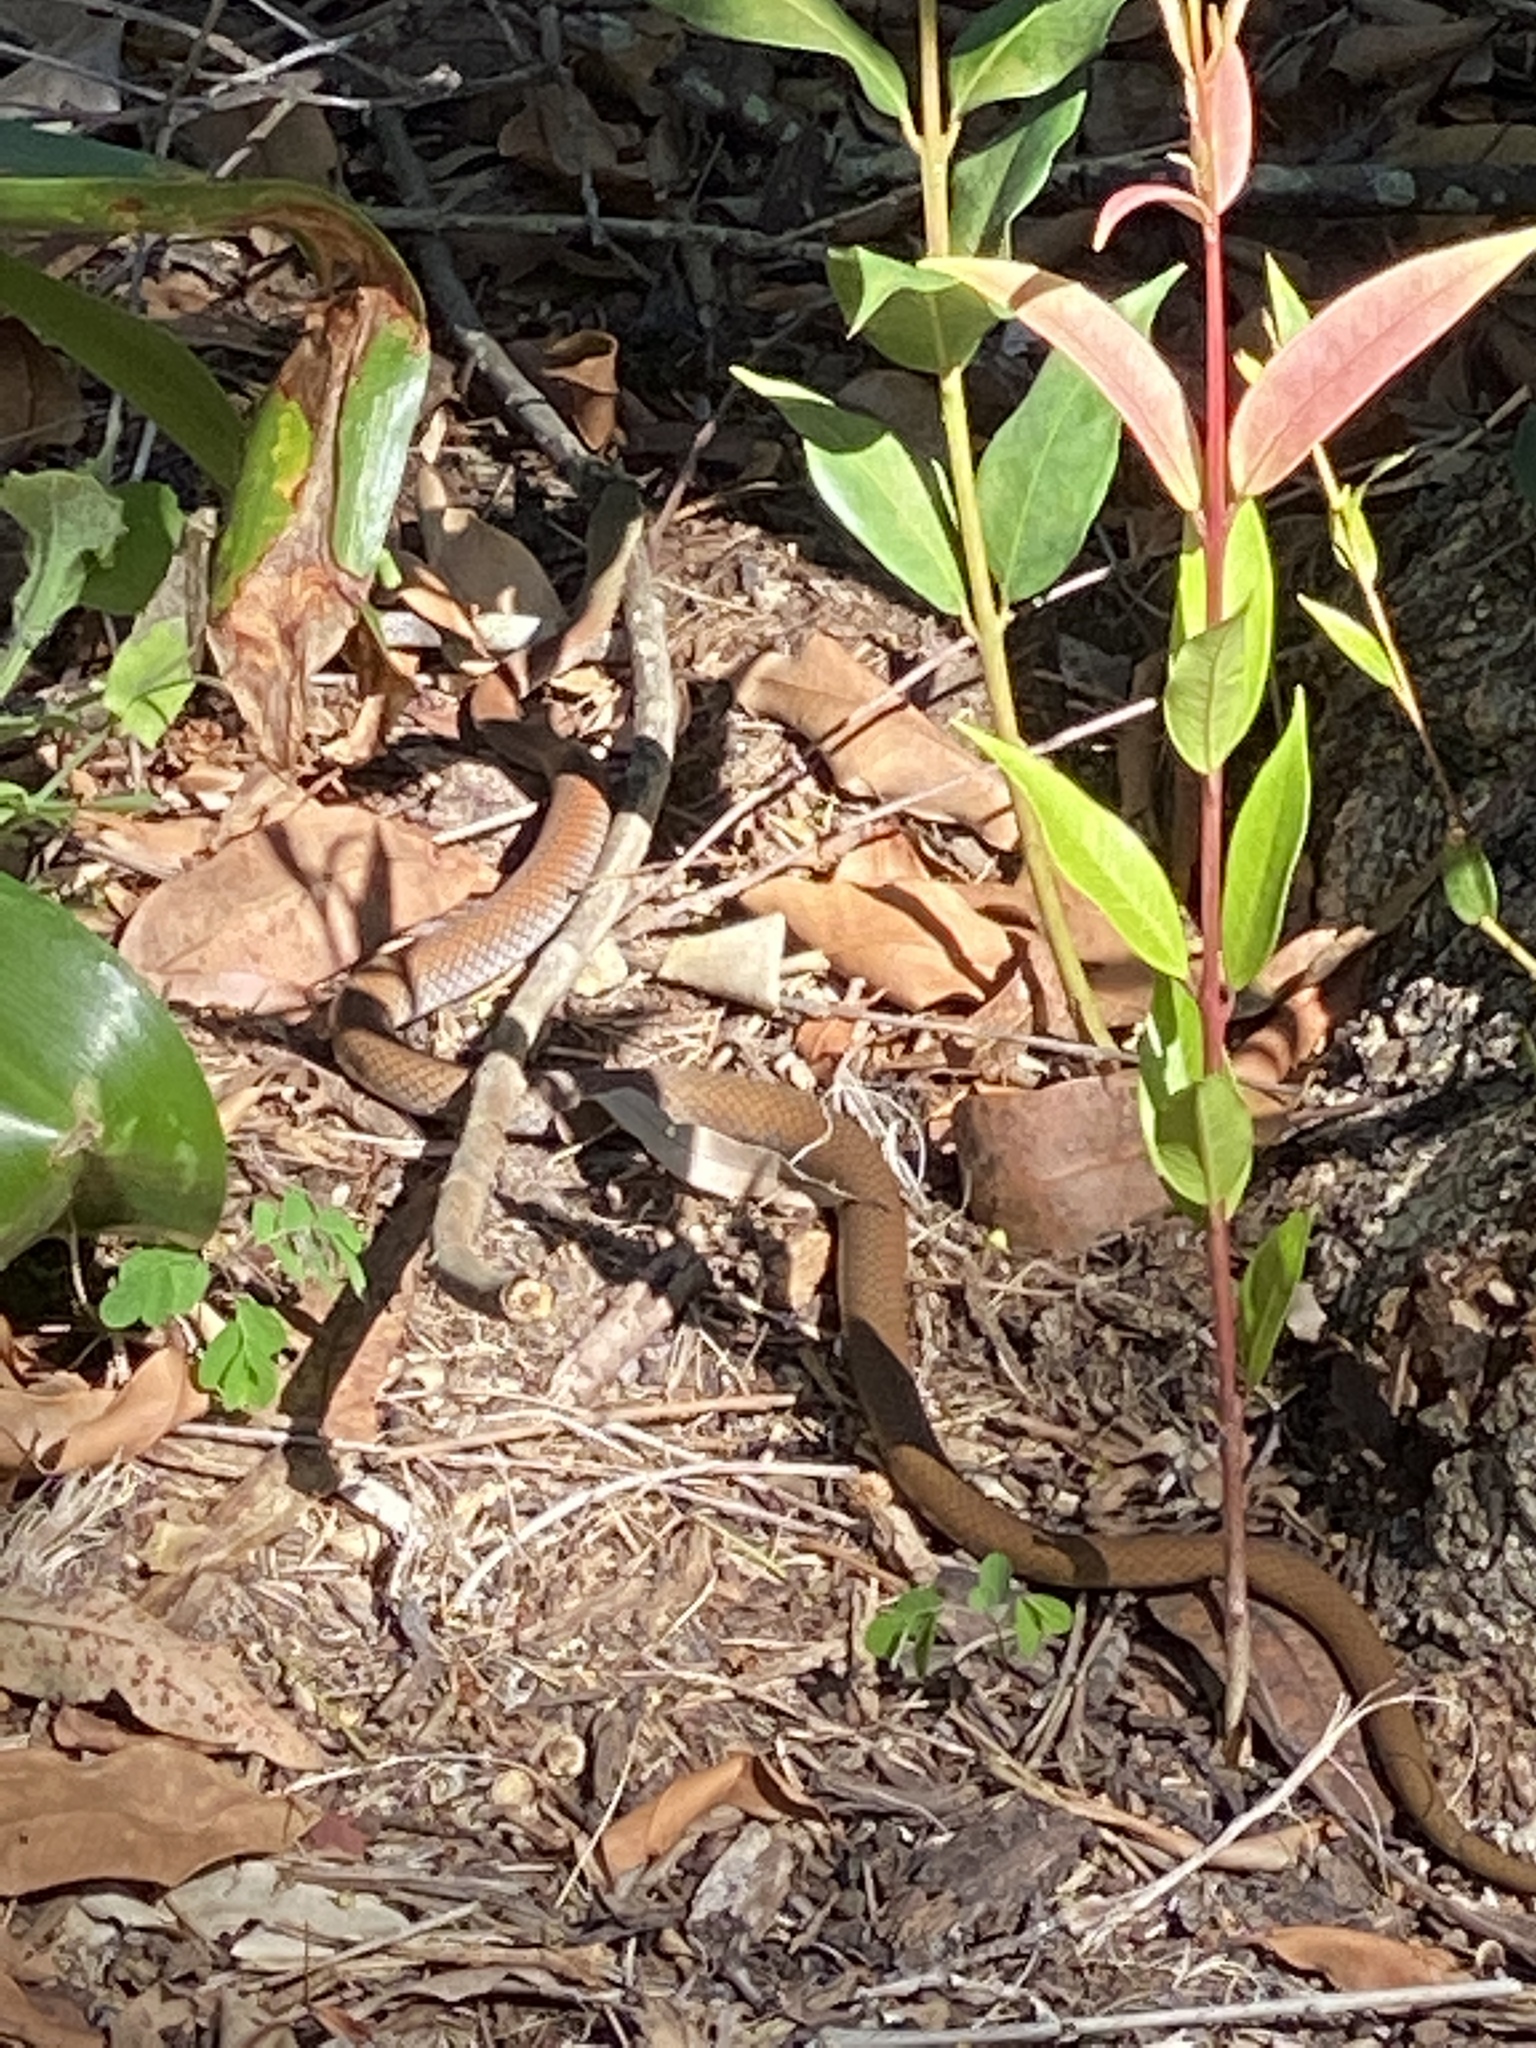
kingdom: Animalia
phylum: Chordata
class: Squamata
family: Elapidae
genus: Demansia
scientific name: Demansia psammophis
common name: Yellow-faced whip snake
